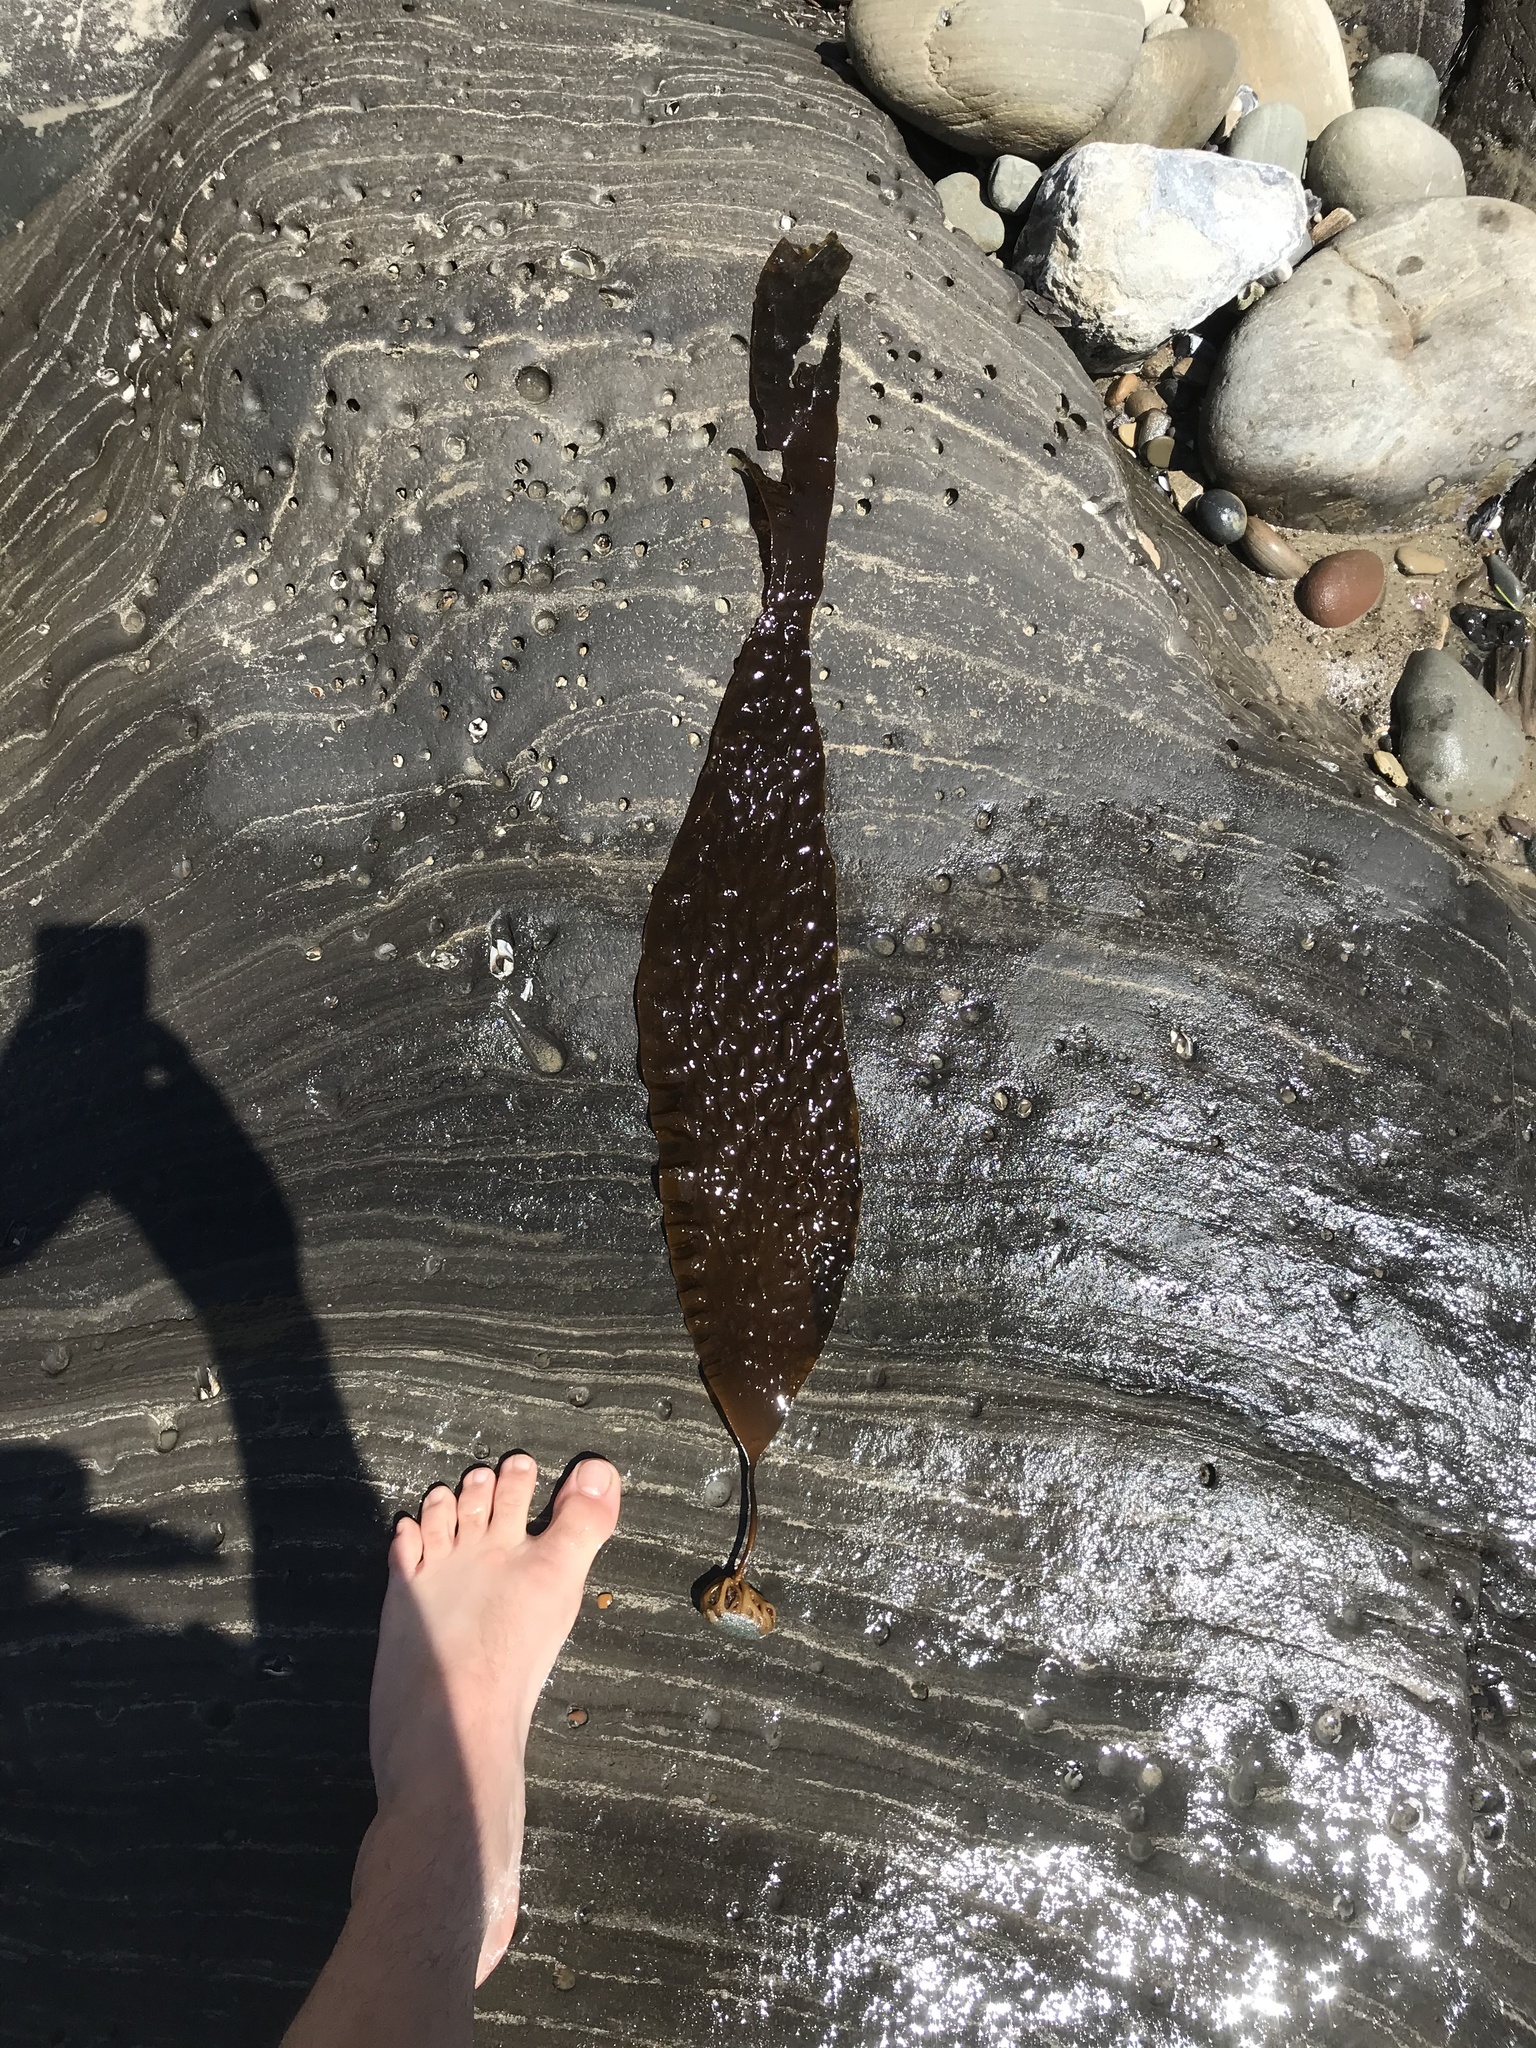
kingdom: Chromista
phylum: Ochrophyta
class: Phaeophyceae
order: Laminariales
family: Laminariaceae
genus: Laminaria
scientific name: Laminaria farlowii
